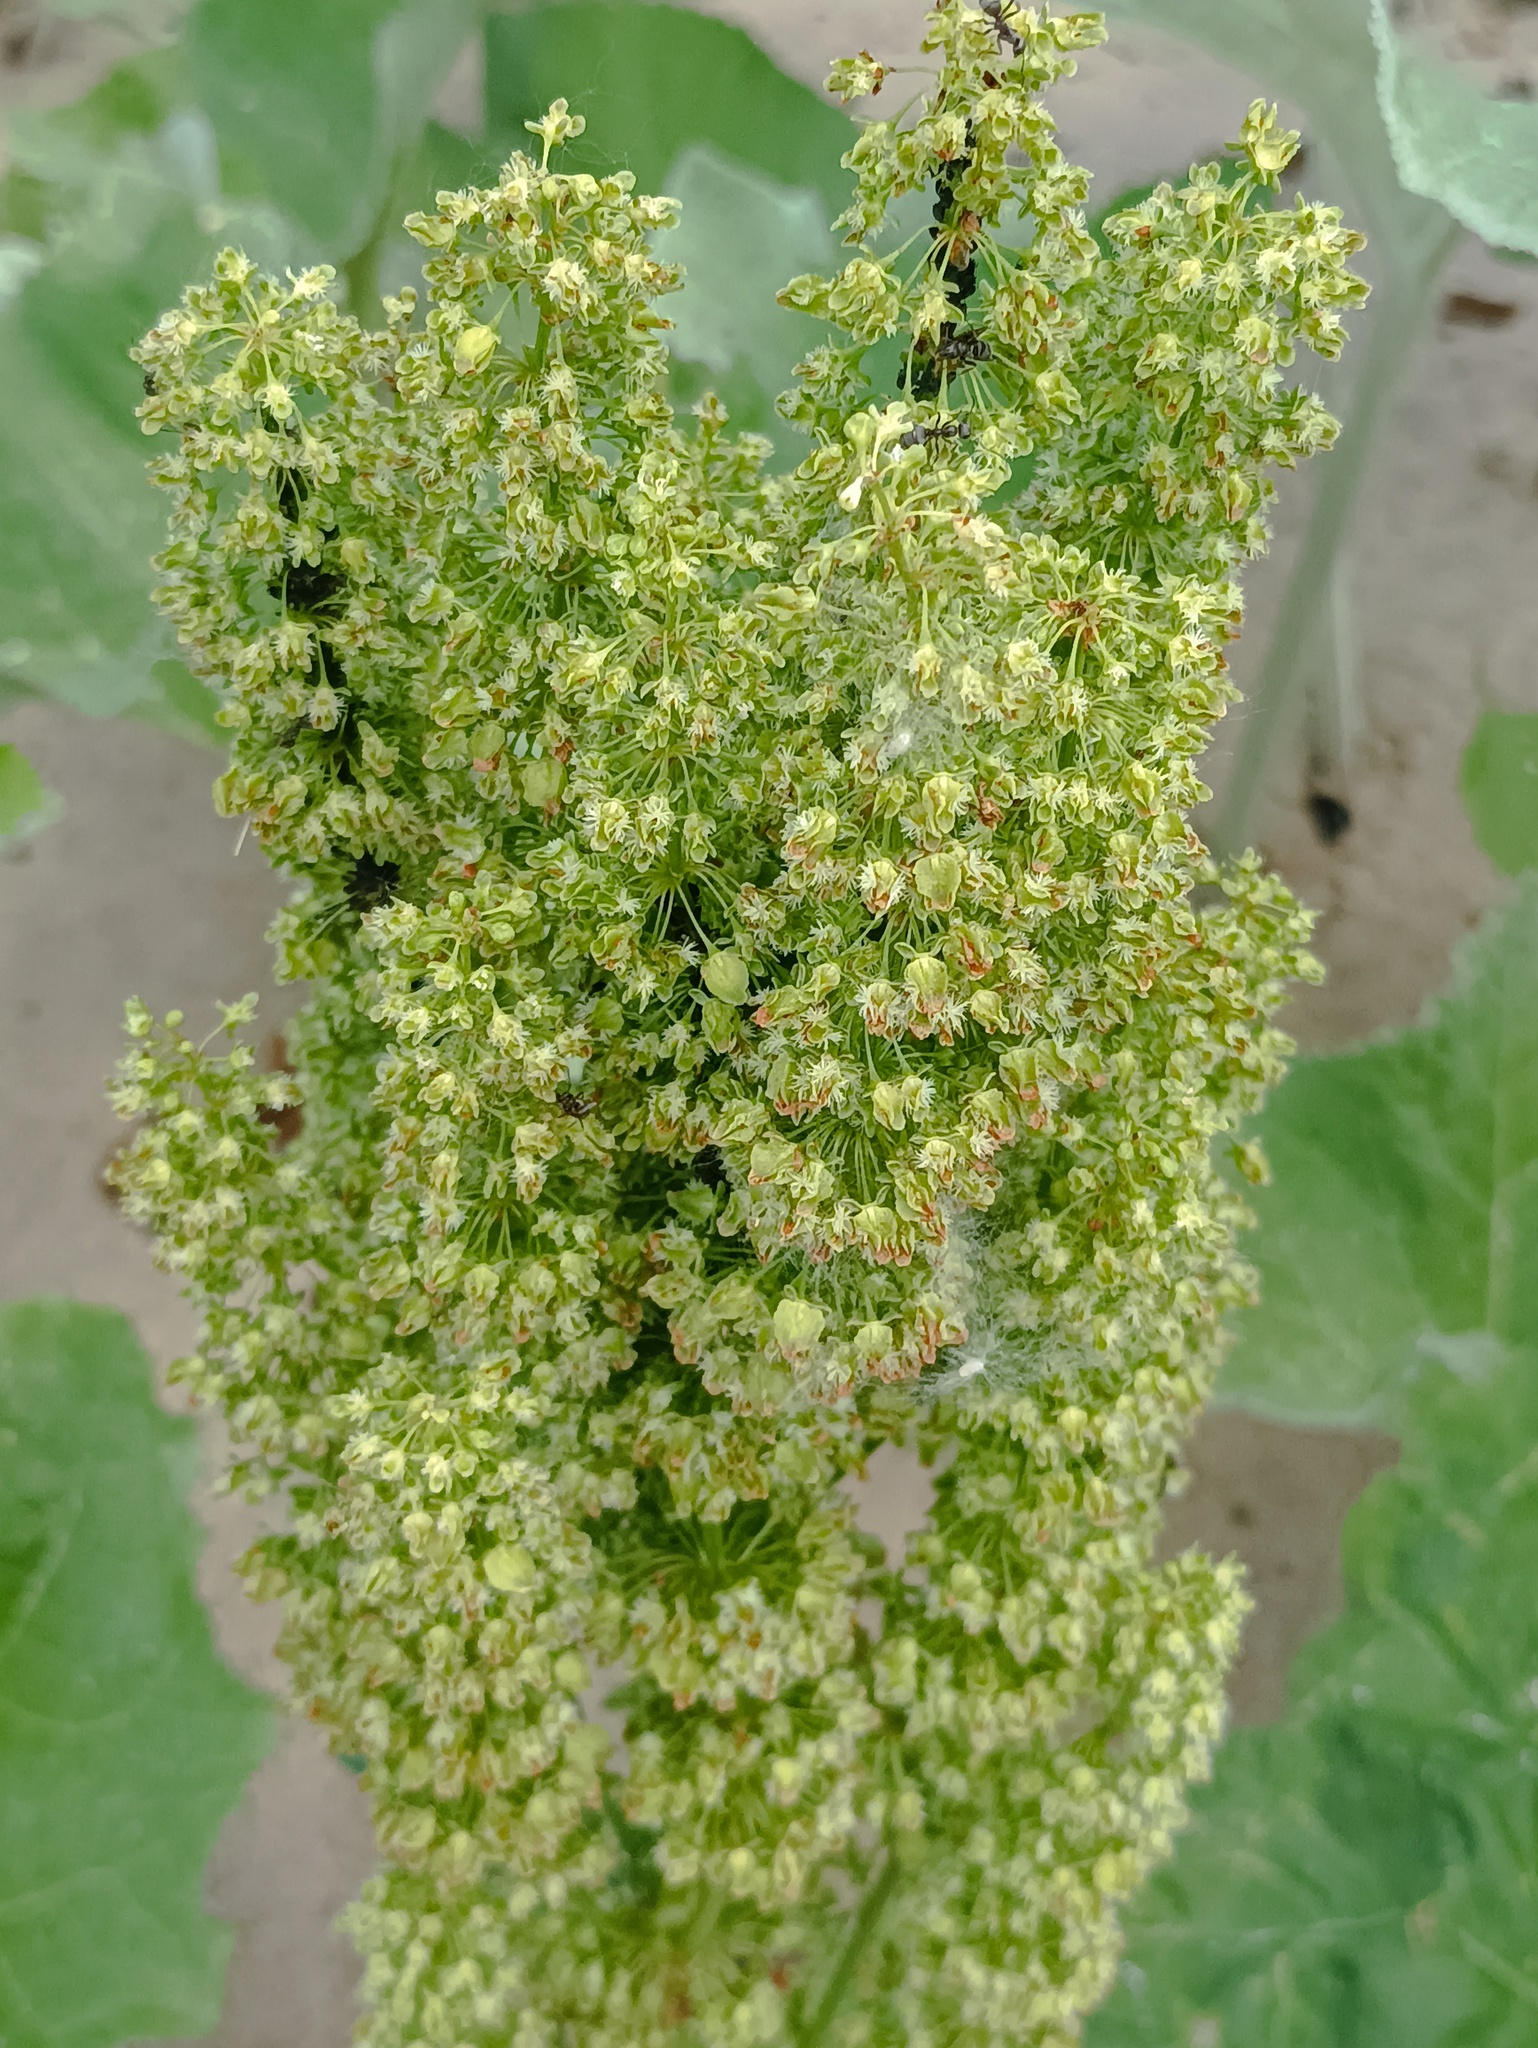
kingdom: Plantae
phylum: Tracheophyta
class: Magnoliopsida
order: Caryophyllales
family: Polygonaceae
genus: Rumex
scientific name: Rumex confertus
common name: Russian dock
